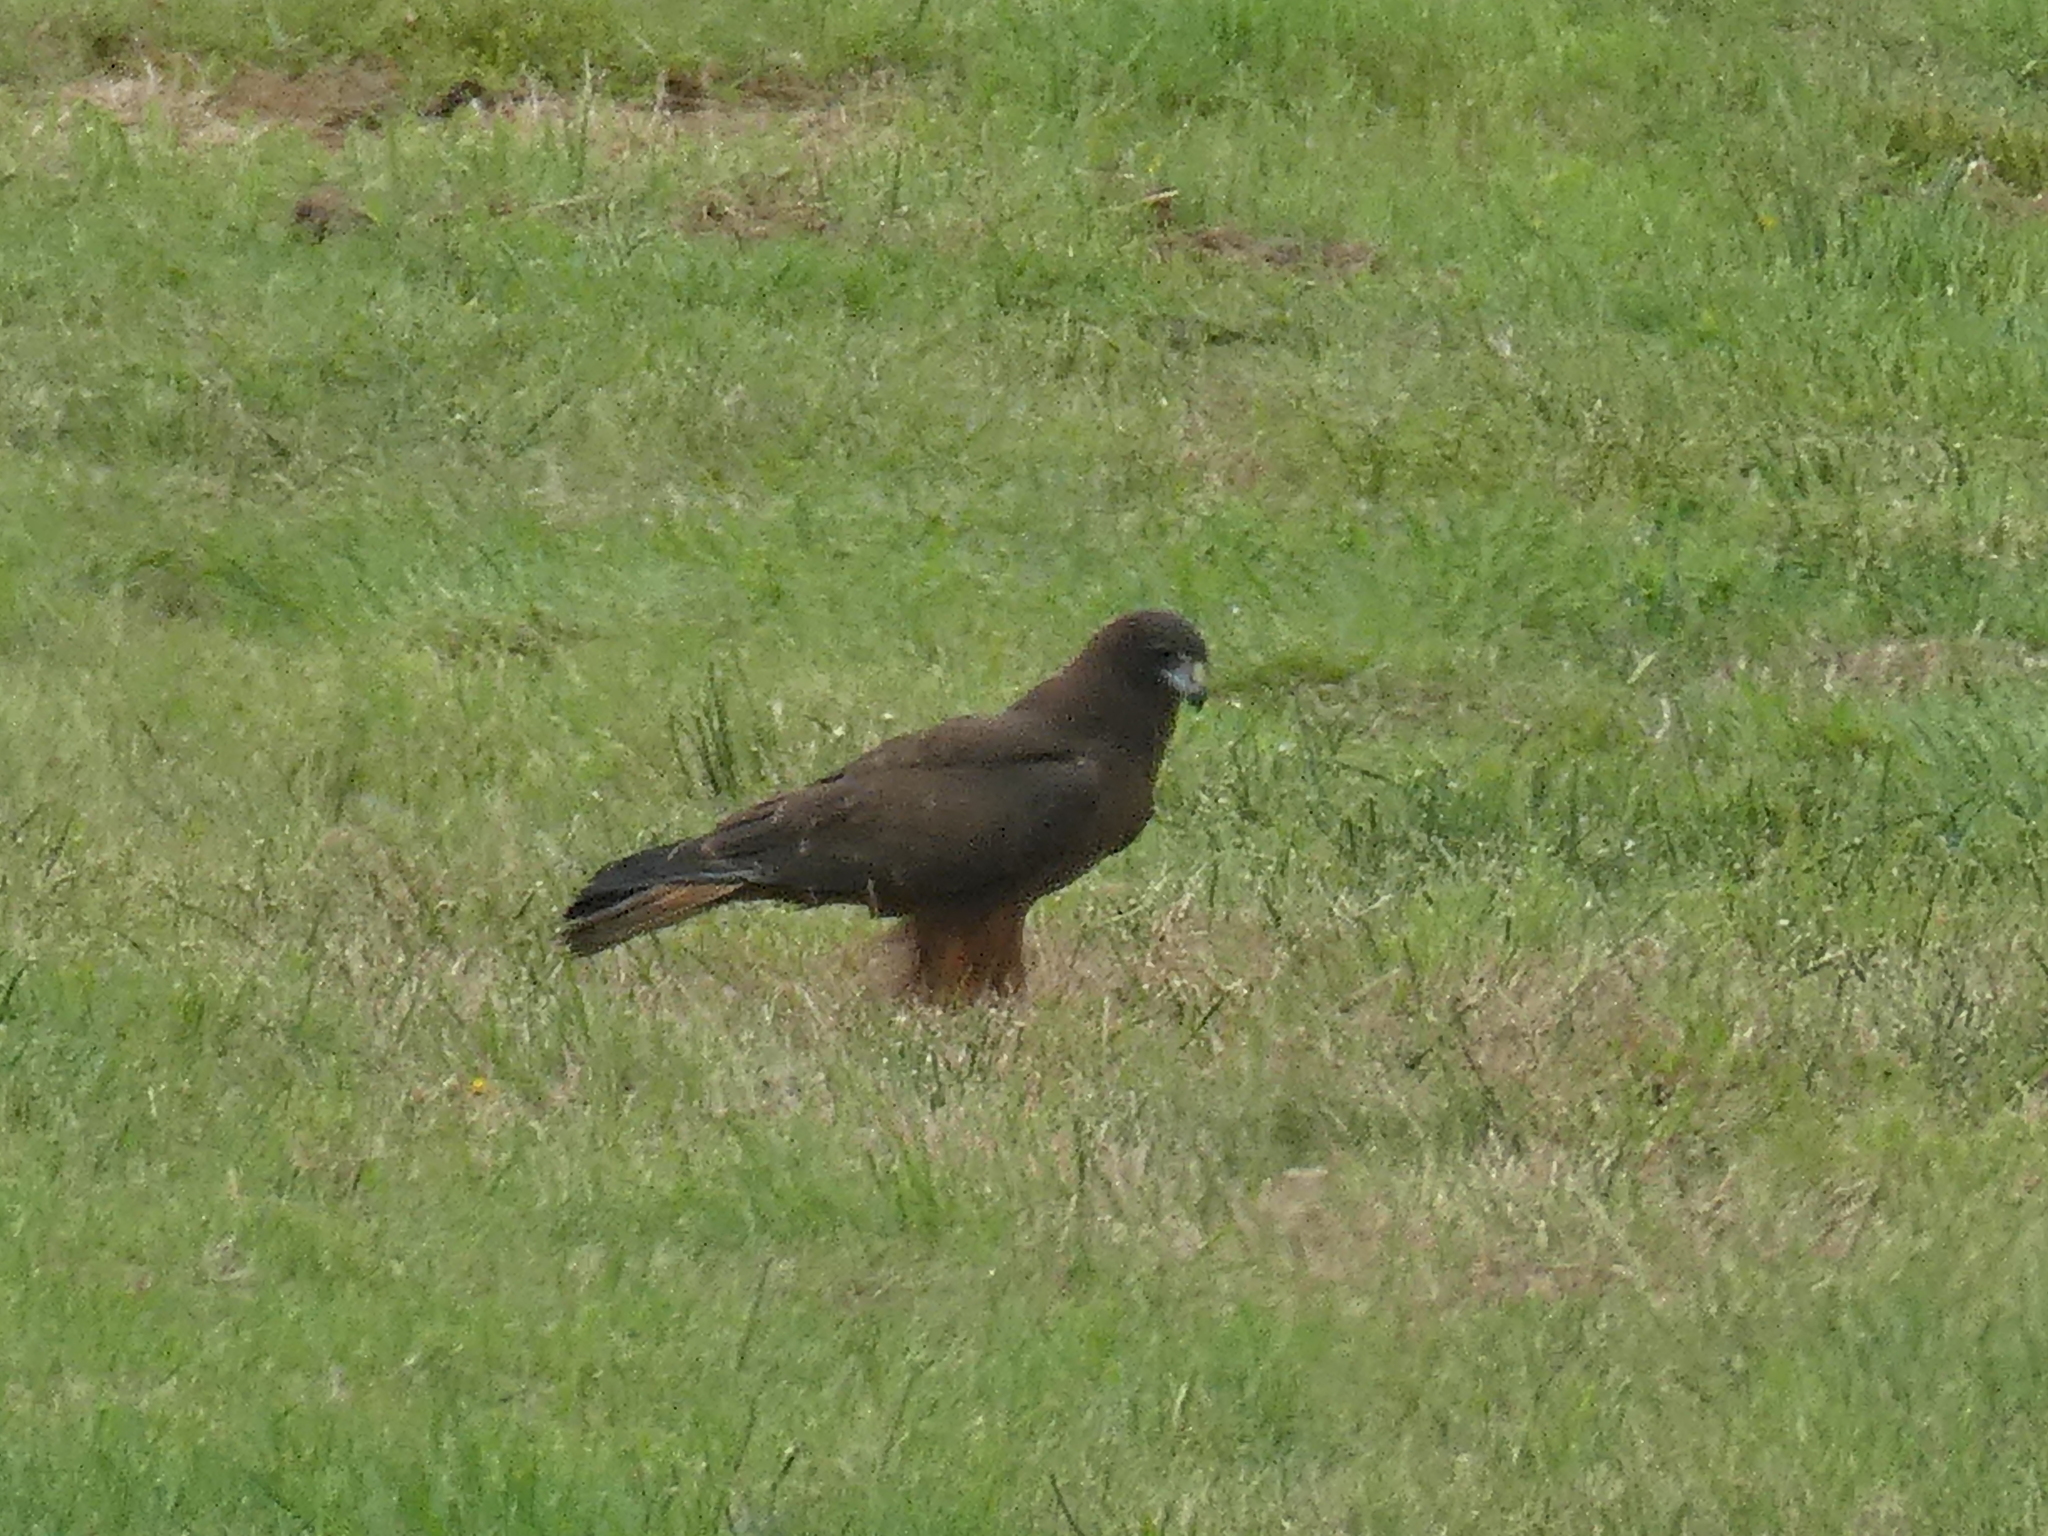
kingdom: Animalia
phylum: Chordata
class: Aves
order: Accipitriformes
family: Accipitridae
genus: Circus
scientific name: Circus approximans
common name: Swamp harrier
